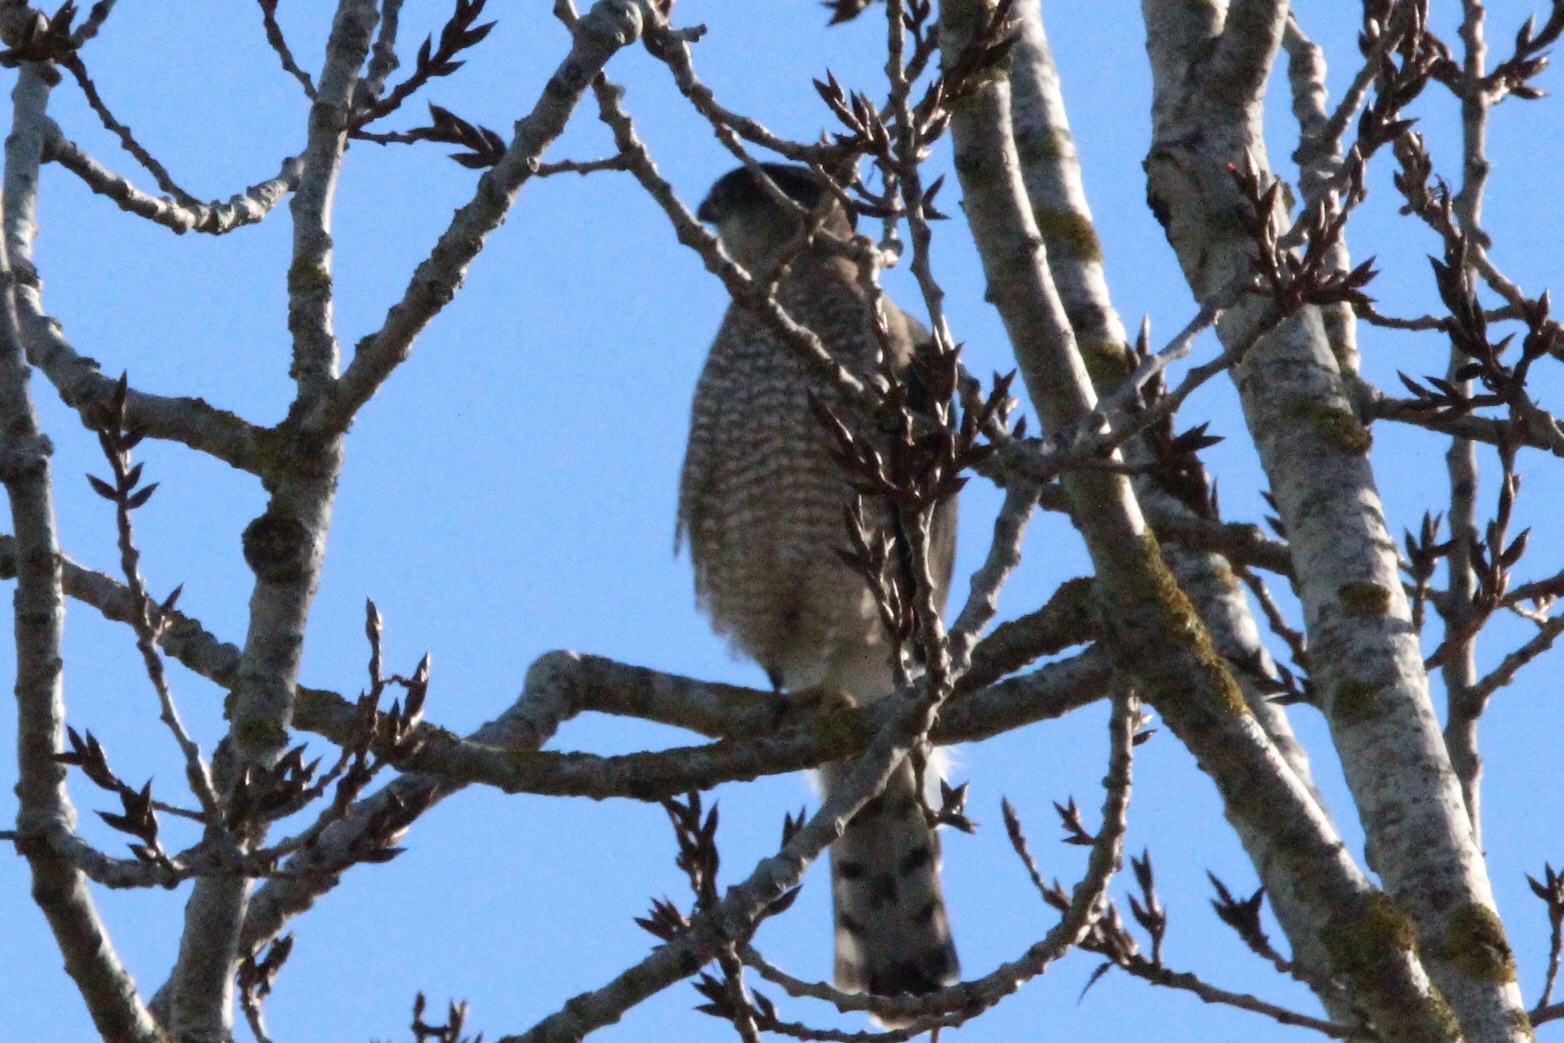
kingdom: Animalia
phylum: Chordata
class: Aves
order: Accipitriformes
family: Accipitridae
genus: Accipiter
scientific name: Accipiter cooperii
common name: Cooper's hawk
